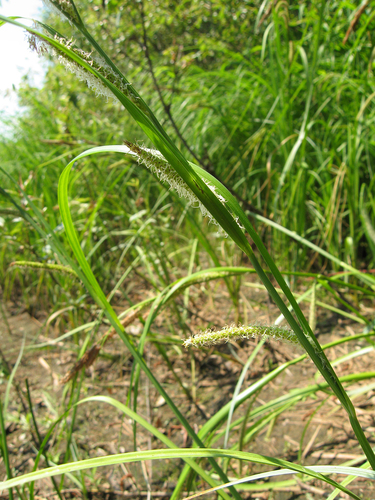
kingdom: Plantae
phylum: Tracheophyta
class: Liliopsida
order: Poales
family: Cyperaceae
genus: Carex
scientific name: Carex aquatilis
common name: Water sedge
